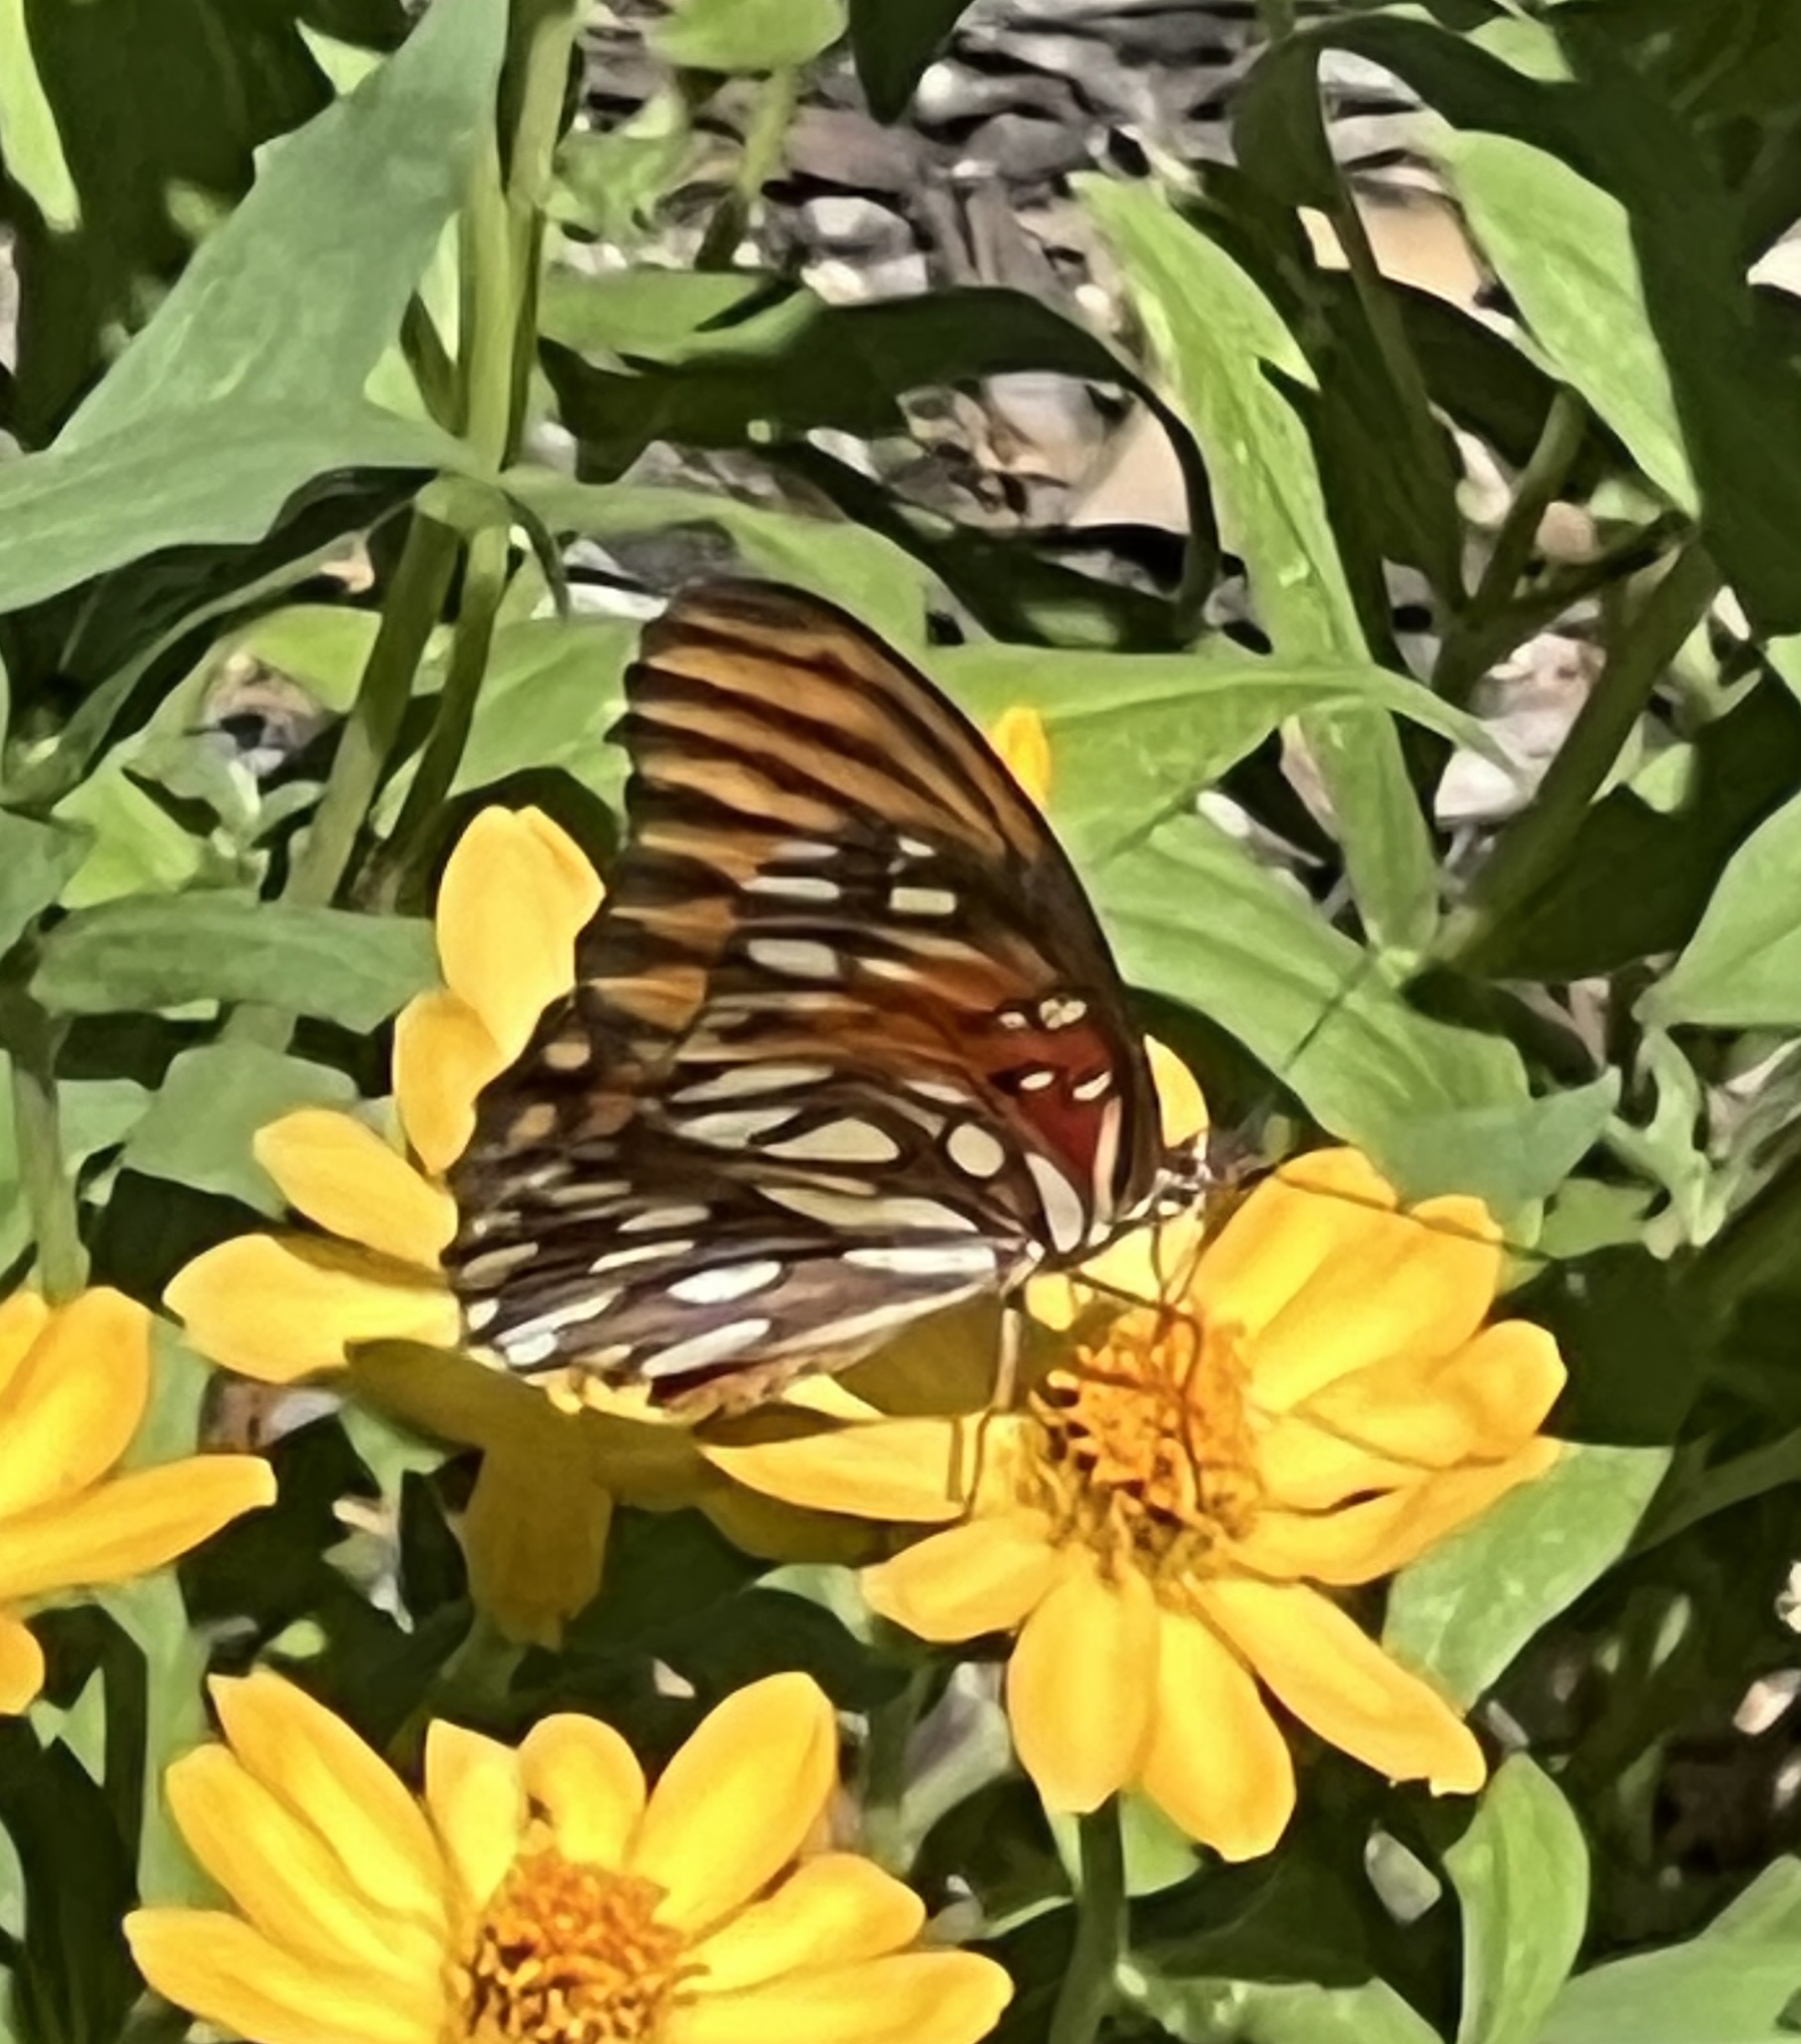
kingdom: Animalia
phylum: Arthropoda
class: Insecta
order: Lepidoptera
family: Nymphalidae
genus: Dione
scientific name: Dione vanillae
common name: Gulf fritillary
